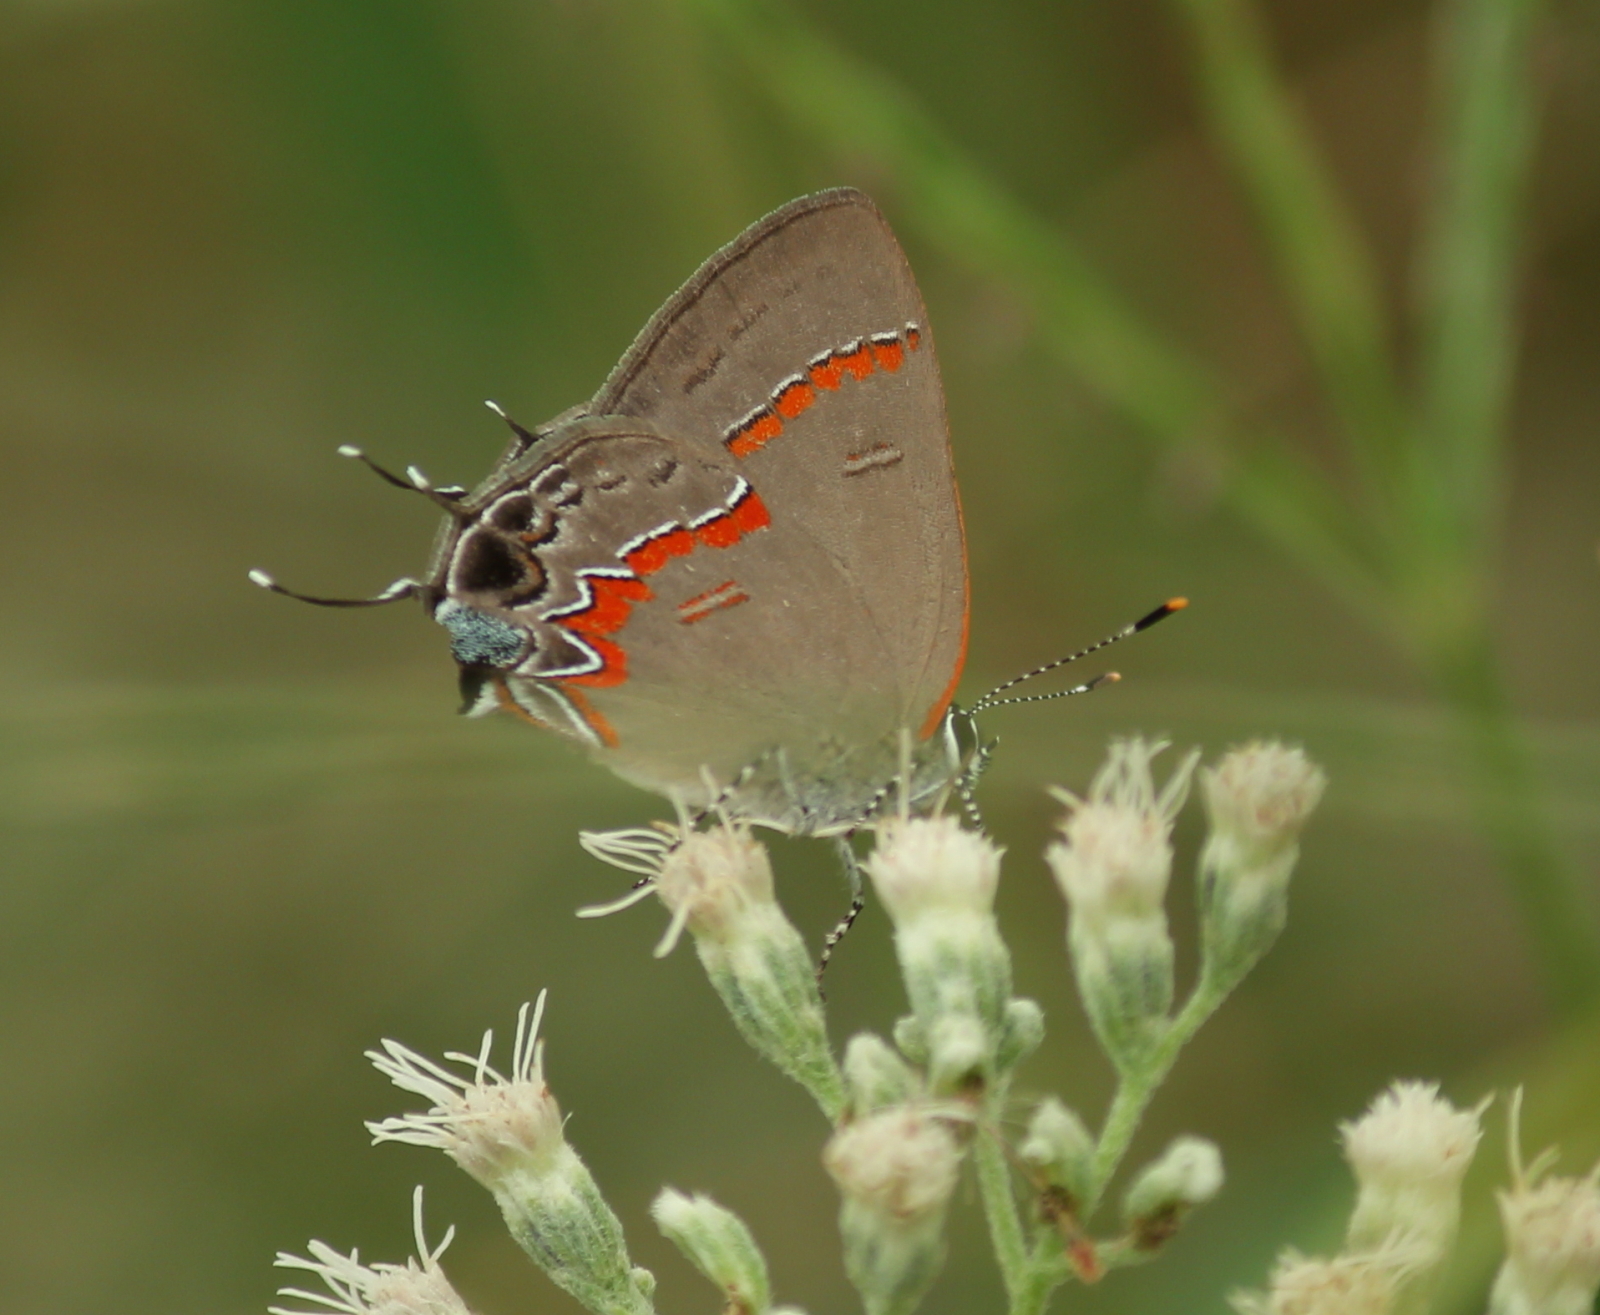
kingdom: Animalia
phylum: Arthropoda
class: Insecta
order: Lepidoptera
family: Lycaenidae
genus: Calycopis
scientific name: Calycopis cecrops
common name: Red-banded hairstreak
